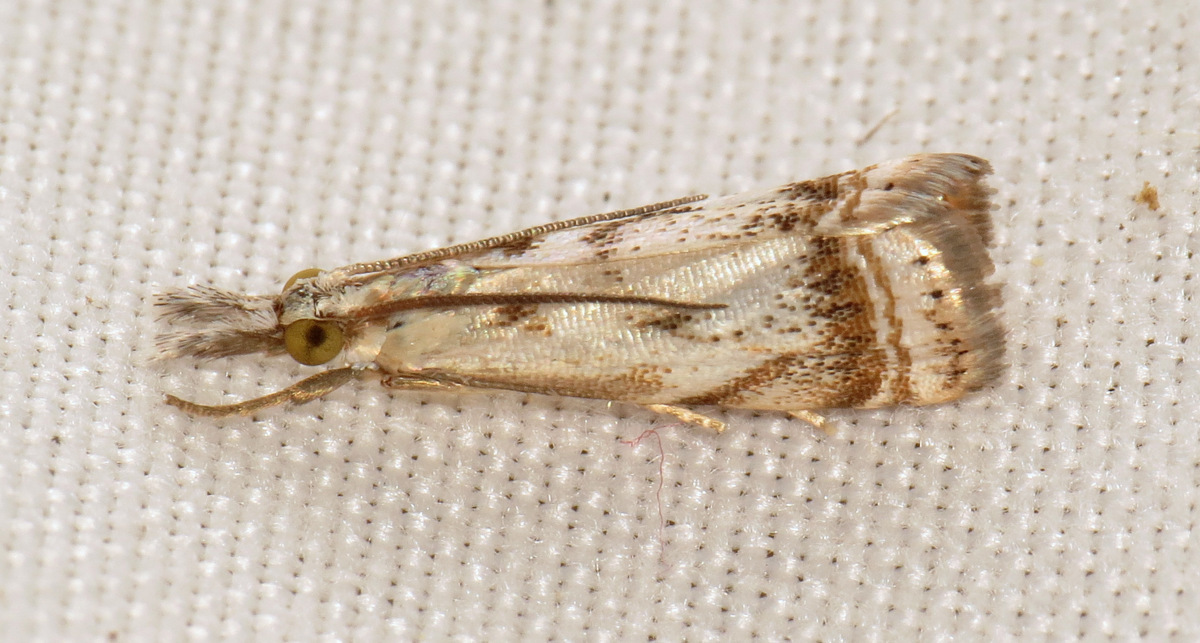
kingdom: Animalia
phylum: Arthropoda
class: Insecta
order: Lepidoptera
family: Crambidae
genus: Microcrambus
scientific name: Microcrambus elegans
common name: Elegant grass-veneer
